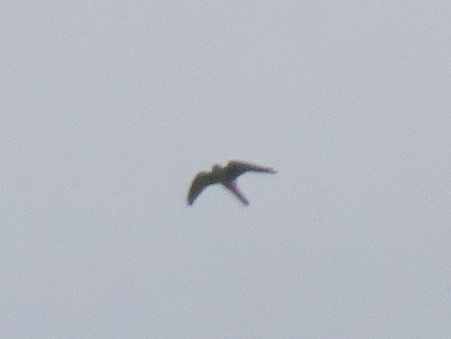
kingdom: Animalia
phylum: Chordata
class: Aves
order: Falconiformes
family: Falconidae
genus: Falco
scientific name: Falco sparverius
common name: American kestrel
